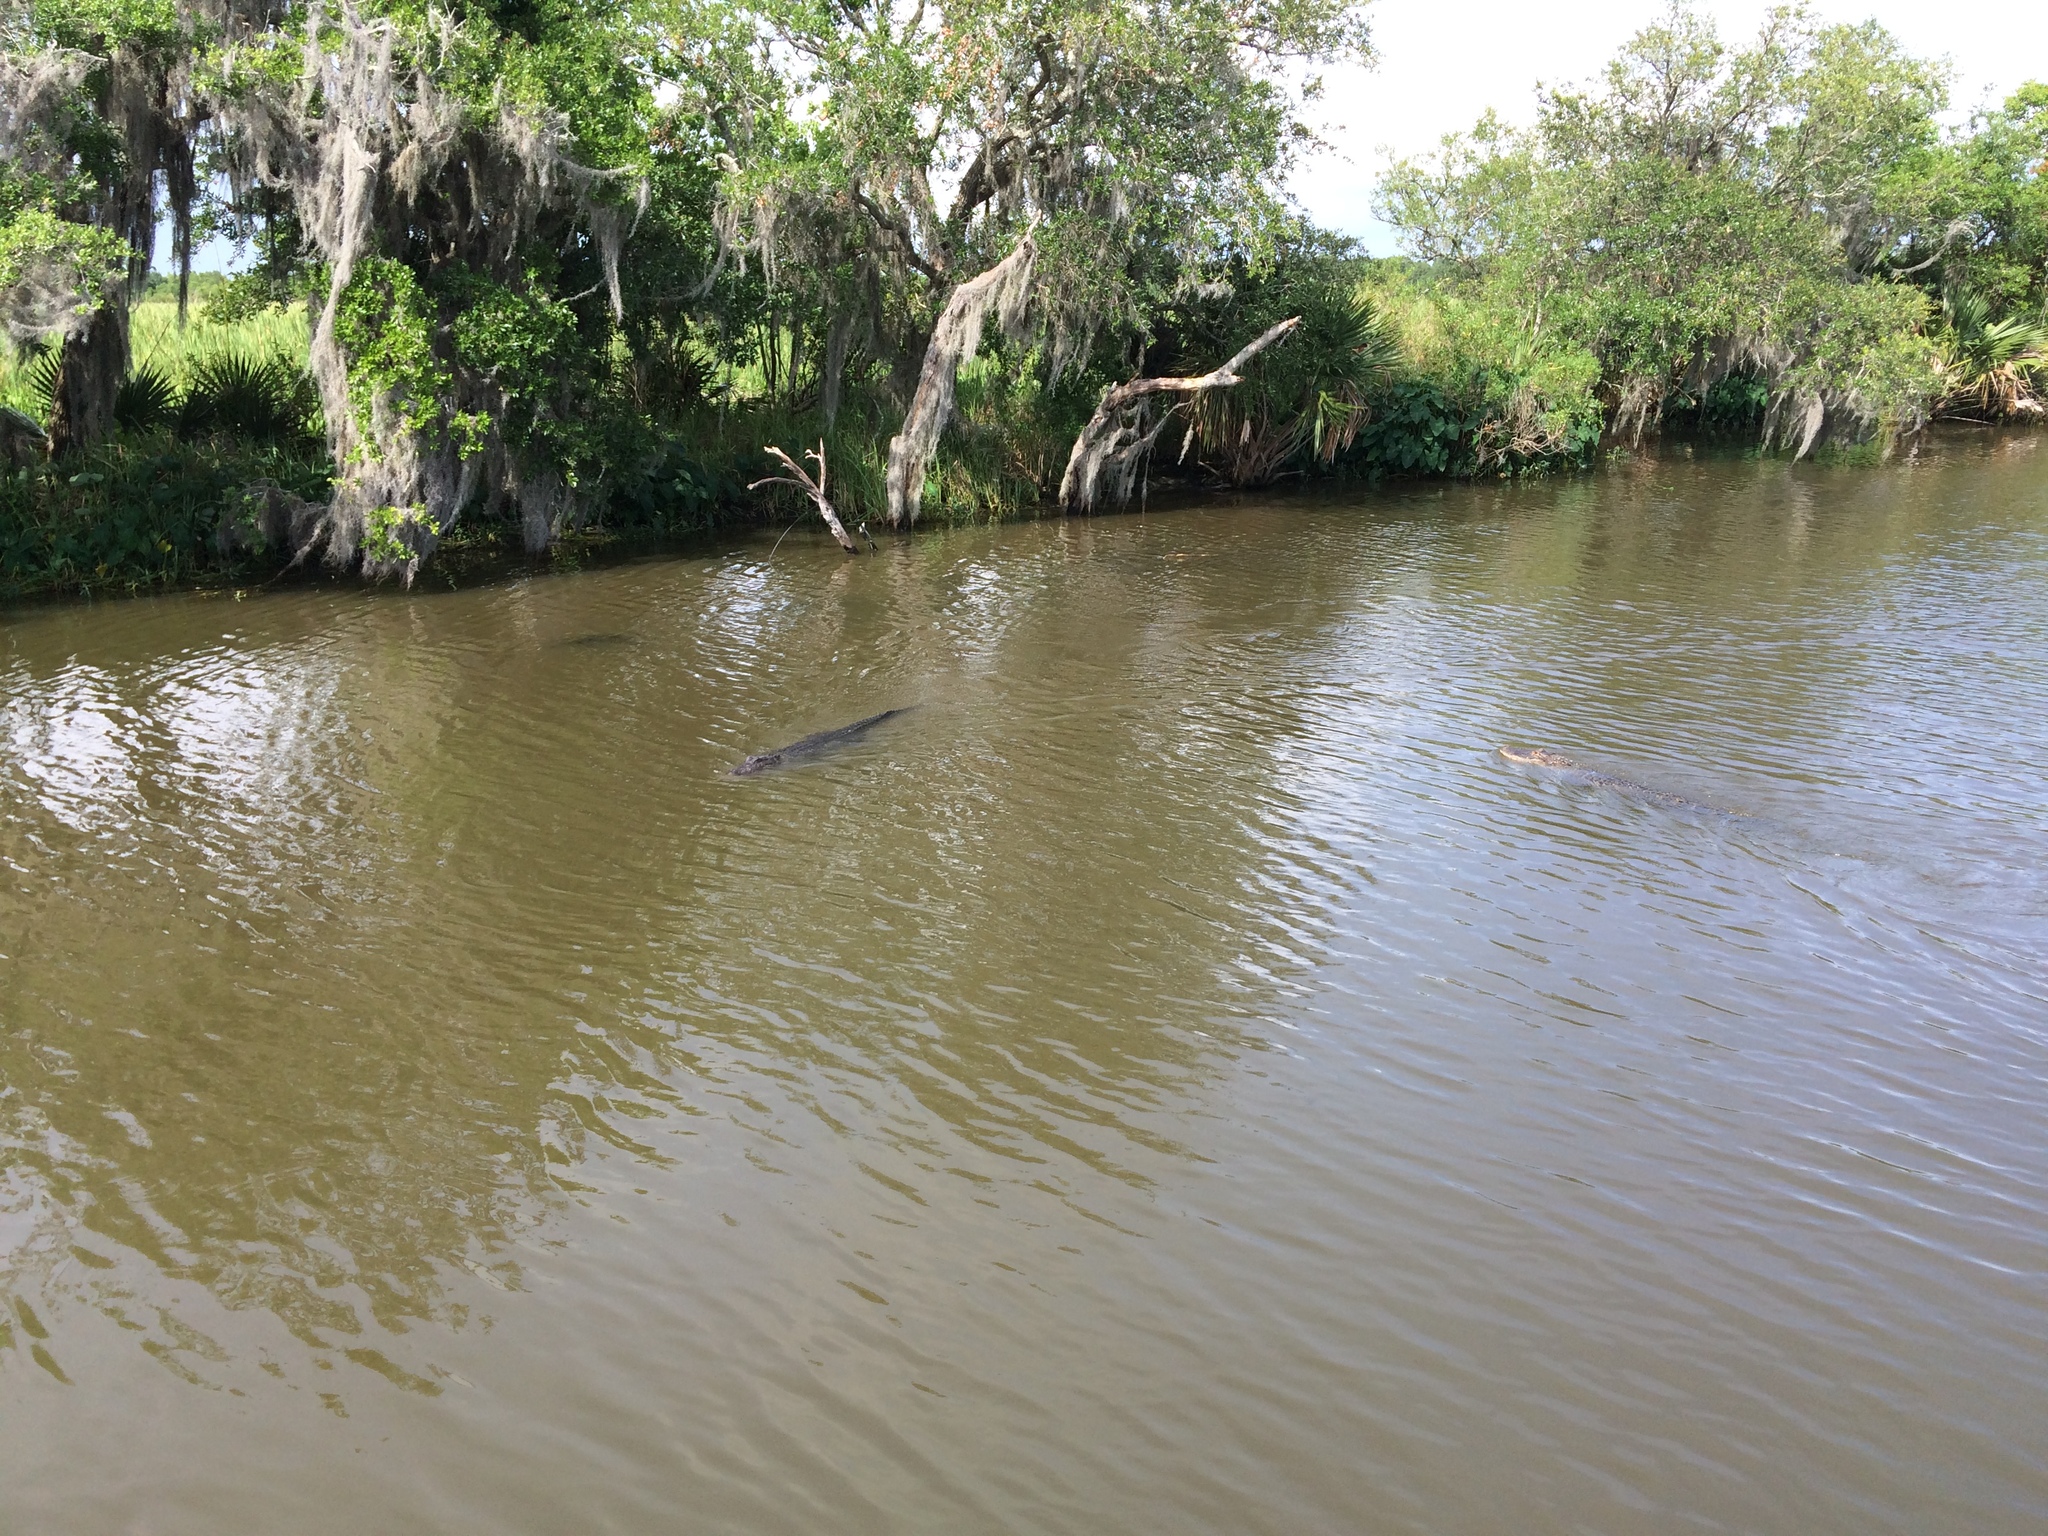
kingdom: Animalia
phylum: Chordata
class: Crocodylia
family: Alligatoridae
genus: Alligator
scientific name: Alligator mississippiensis
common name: American alligator
